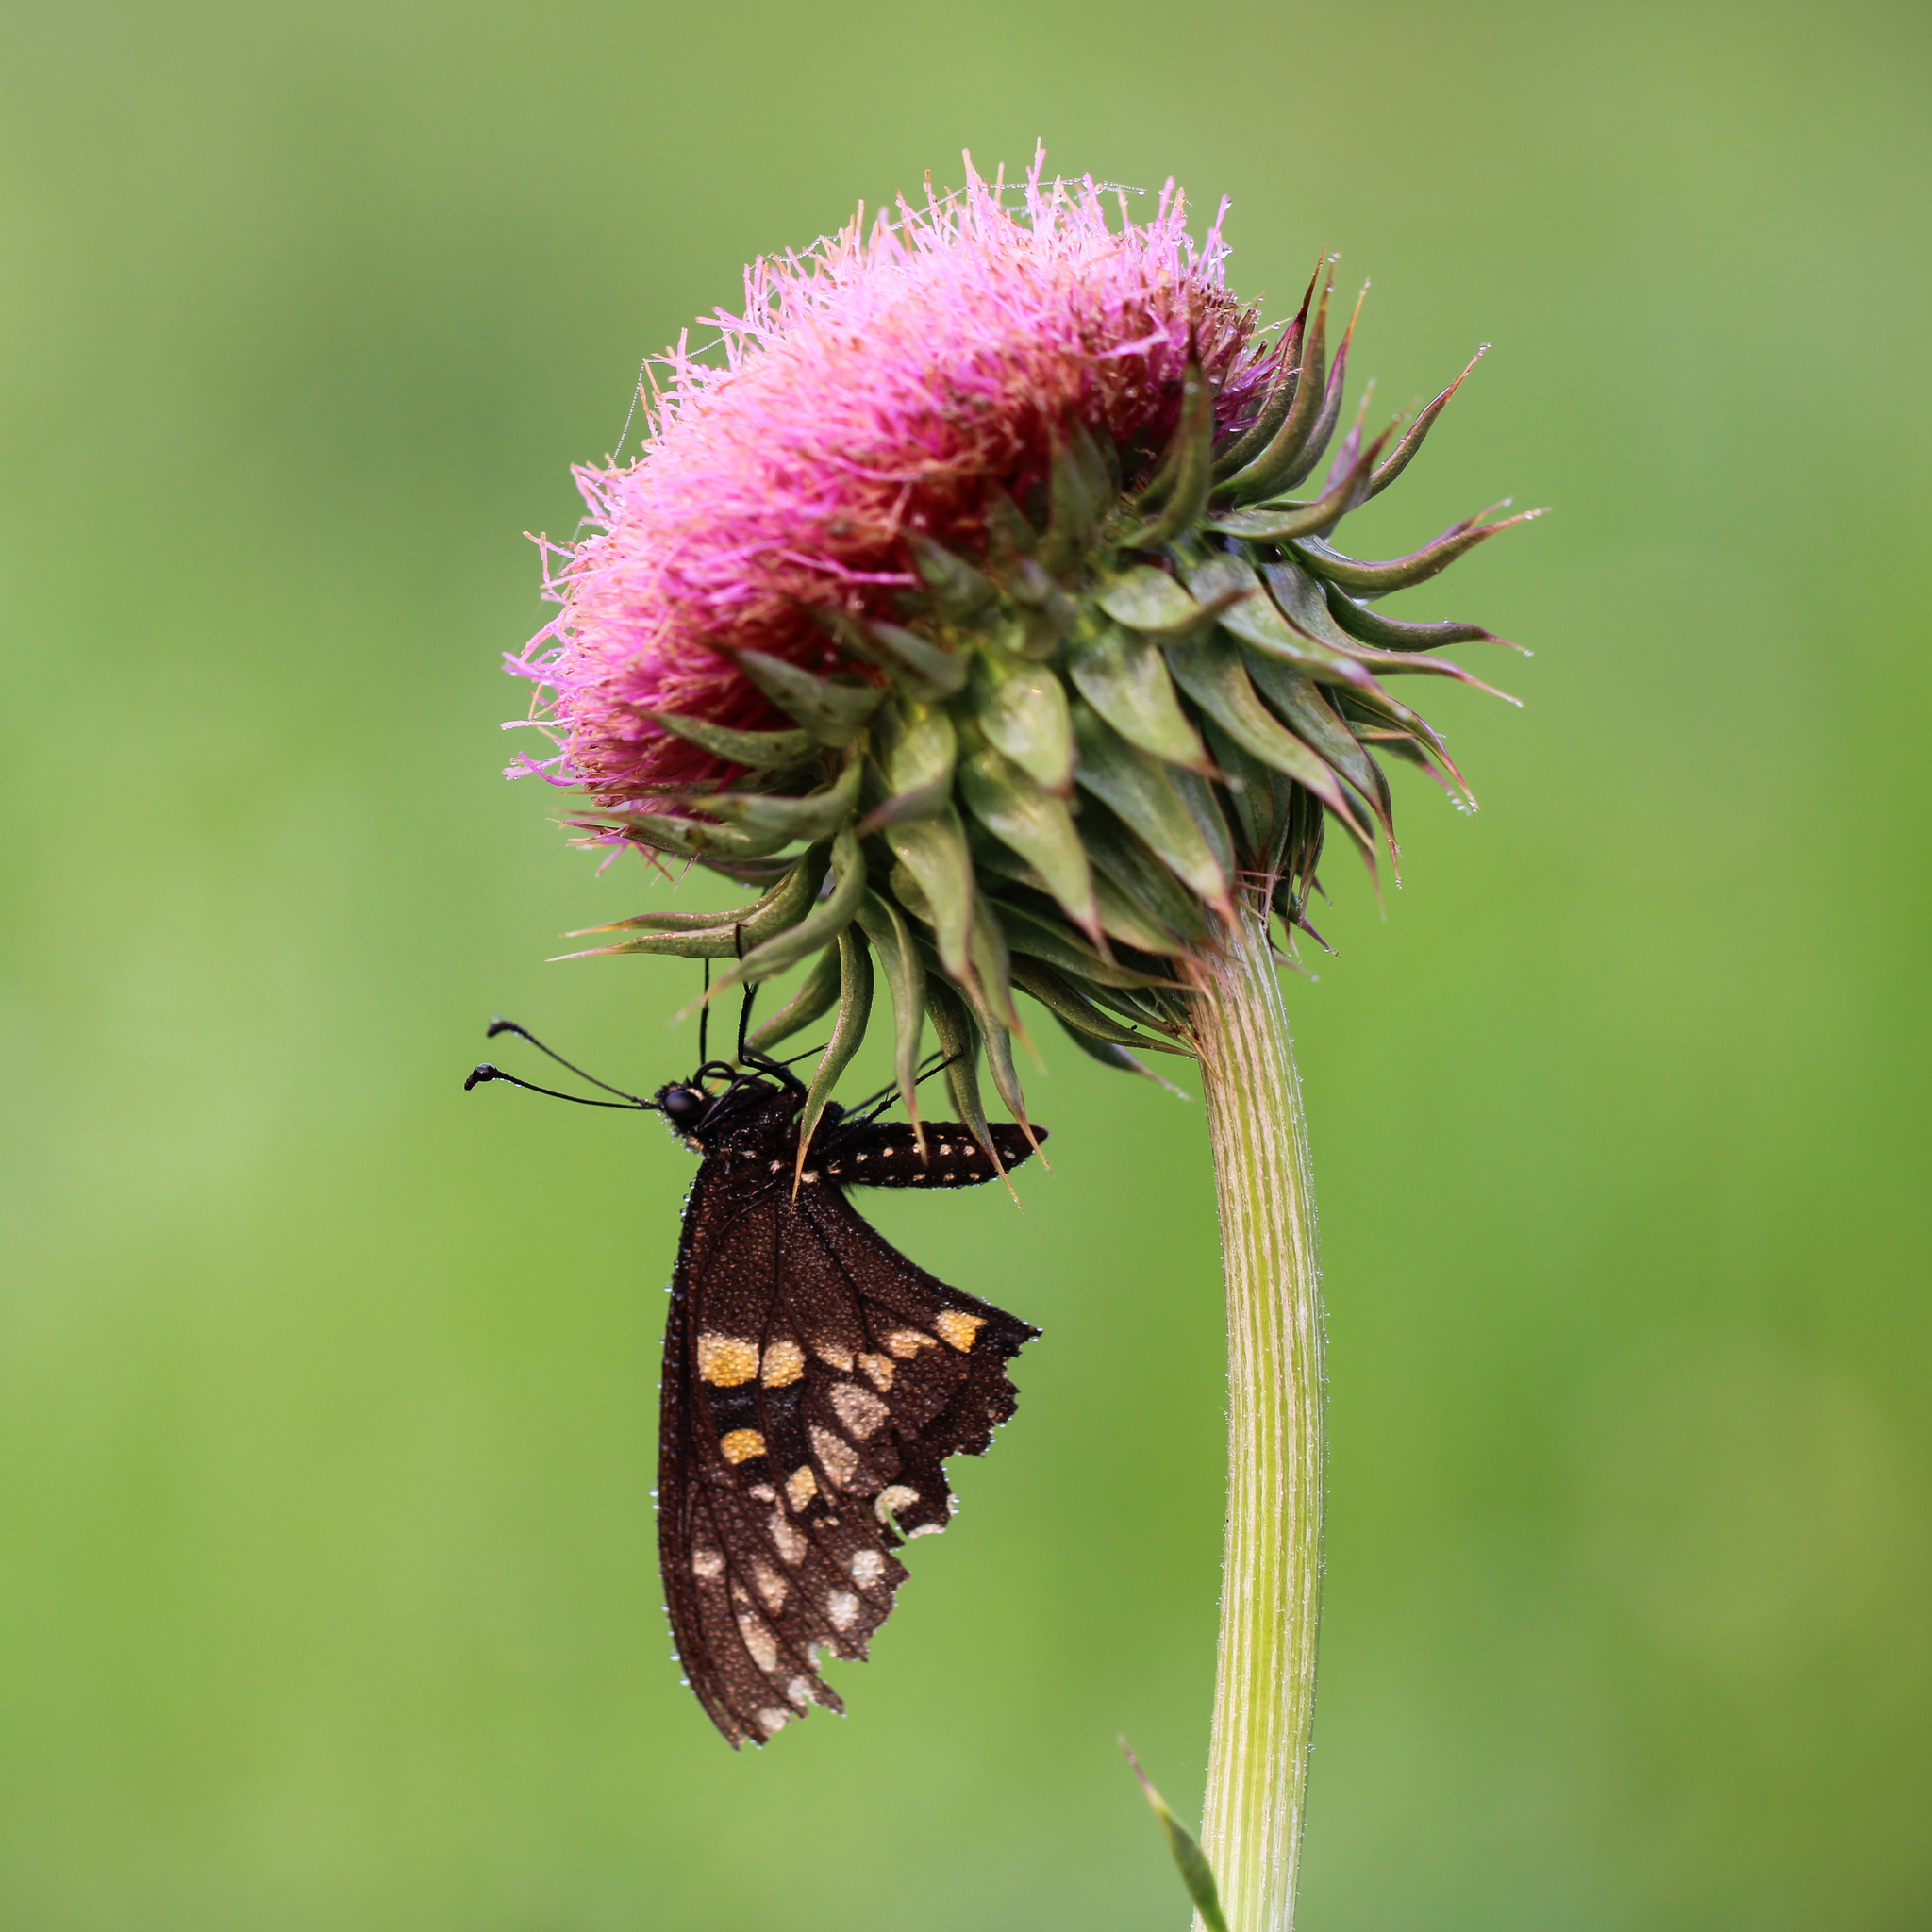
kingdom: Animalia
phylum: Arthropoda
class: Insecta
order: Lepidoptera
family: Papilionidae
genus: Papilio
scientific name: Papilio polyxenes
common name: Black swallowtail
